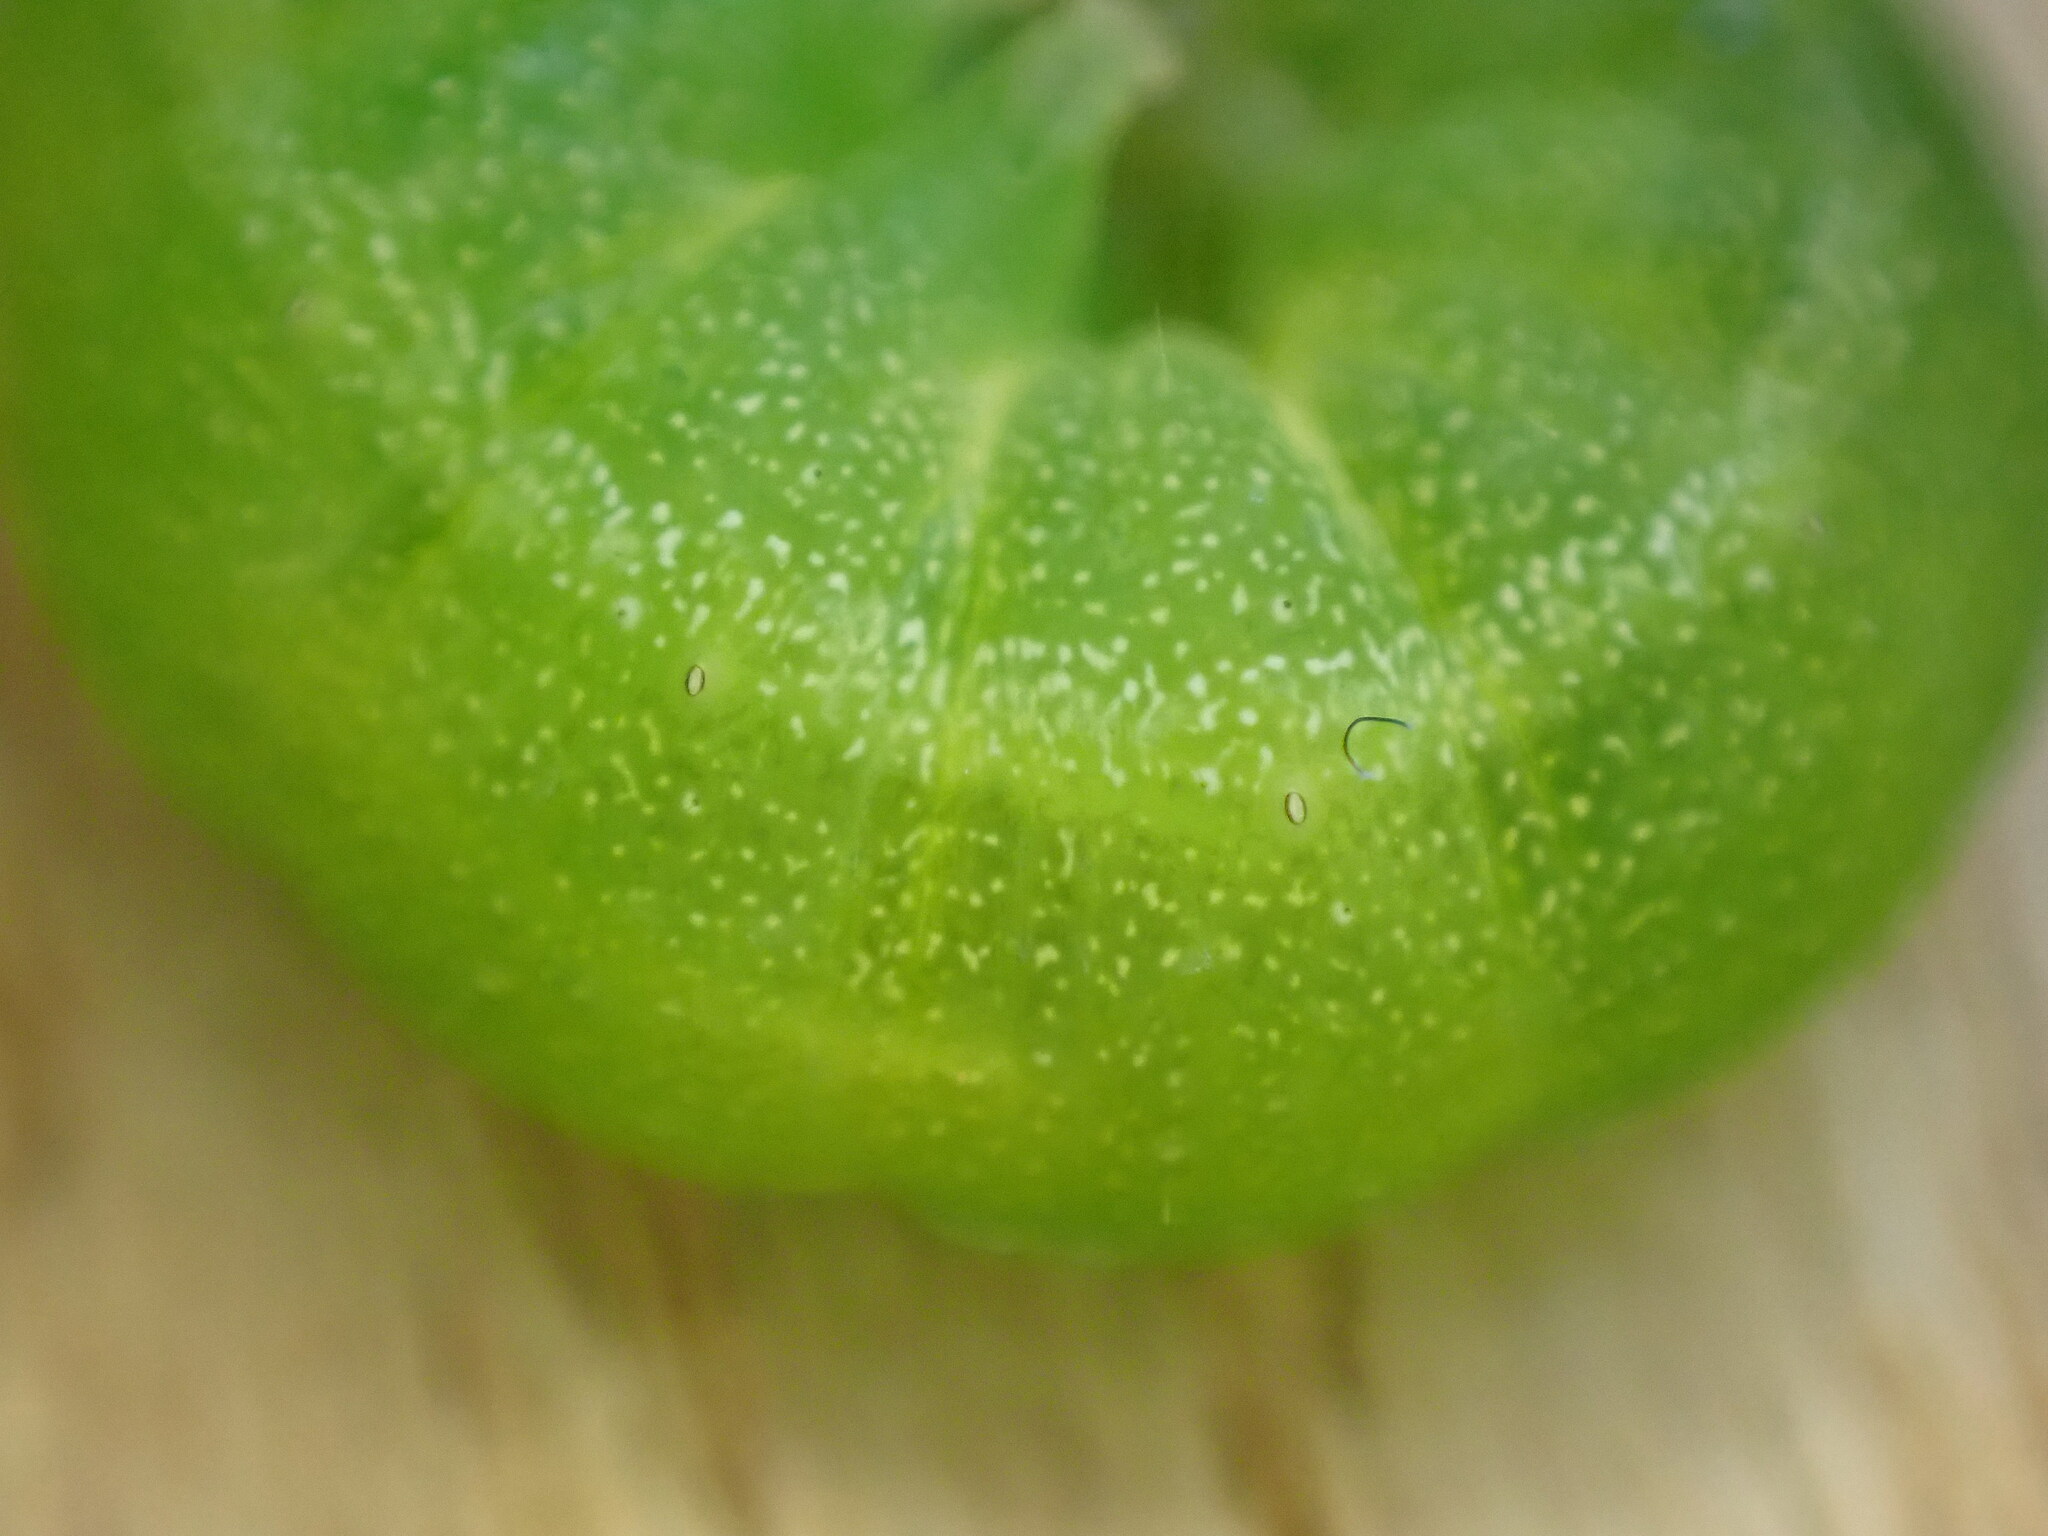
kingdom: Animalia
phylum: Arthropoda
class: Insecta
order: Lepidoptera
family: Noctuidae
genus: Phlogophora
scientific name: Phlogophora meticulosa
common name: Angle shades
